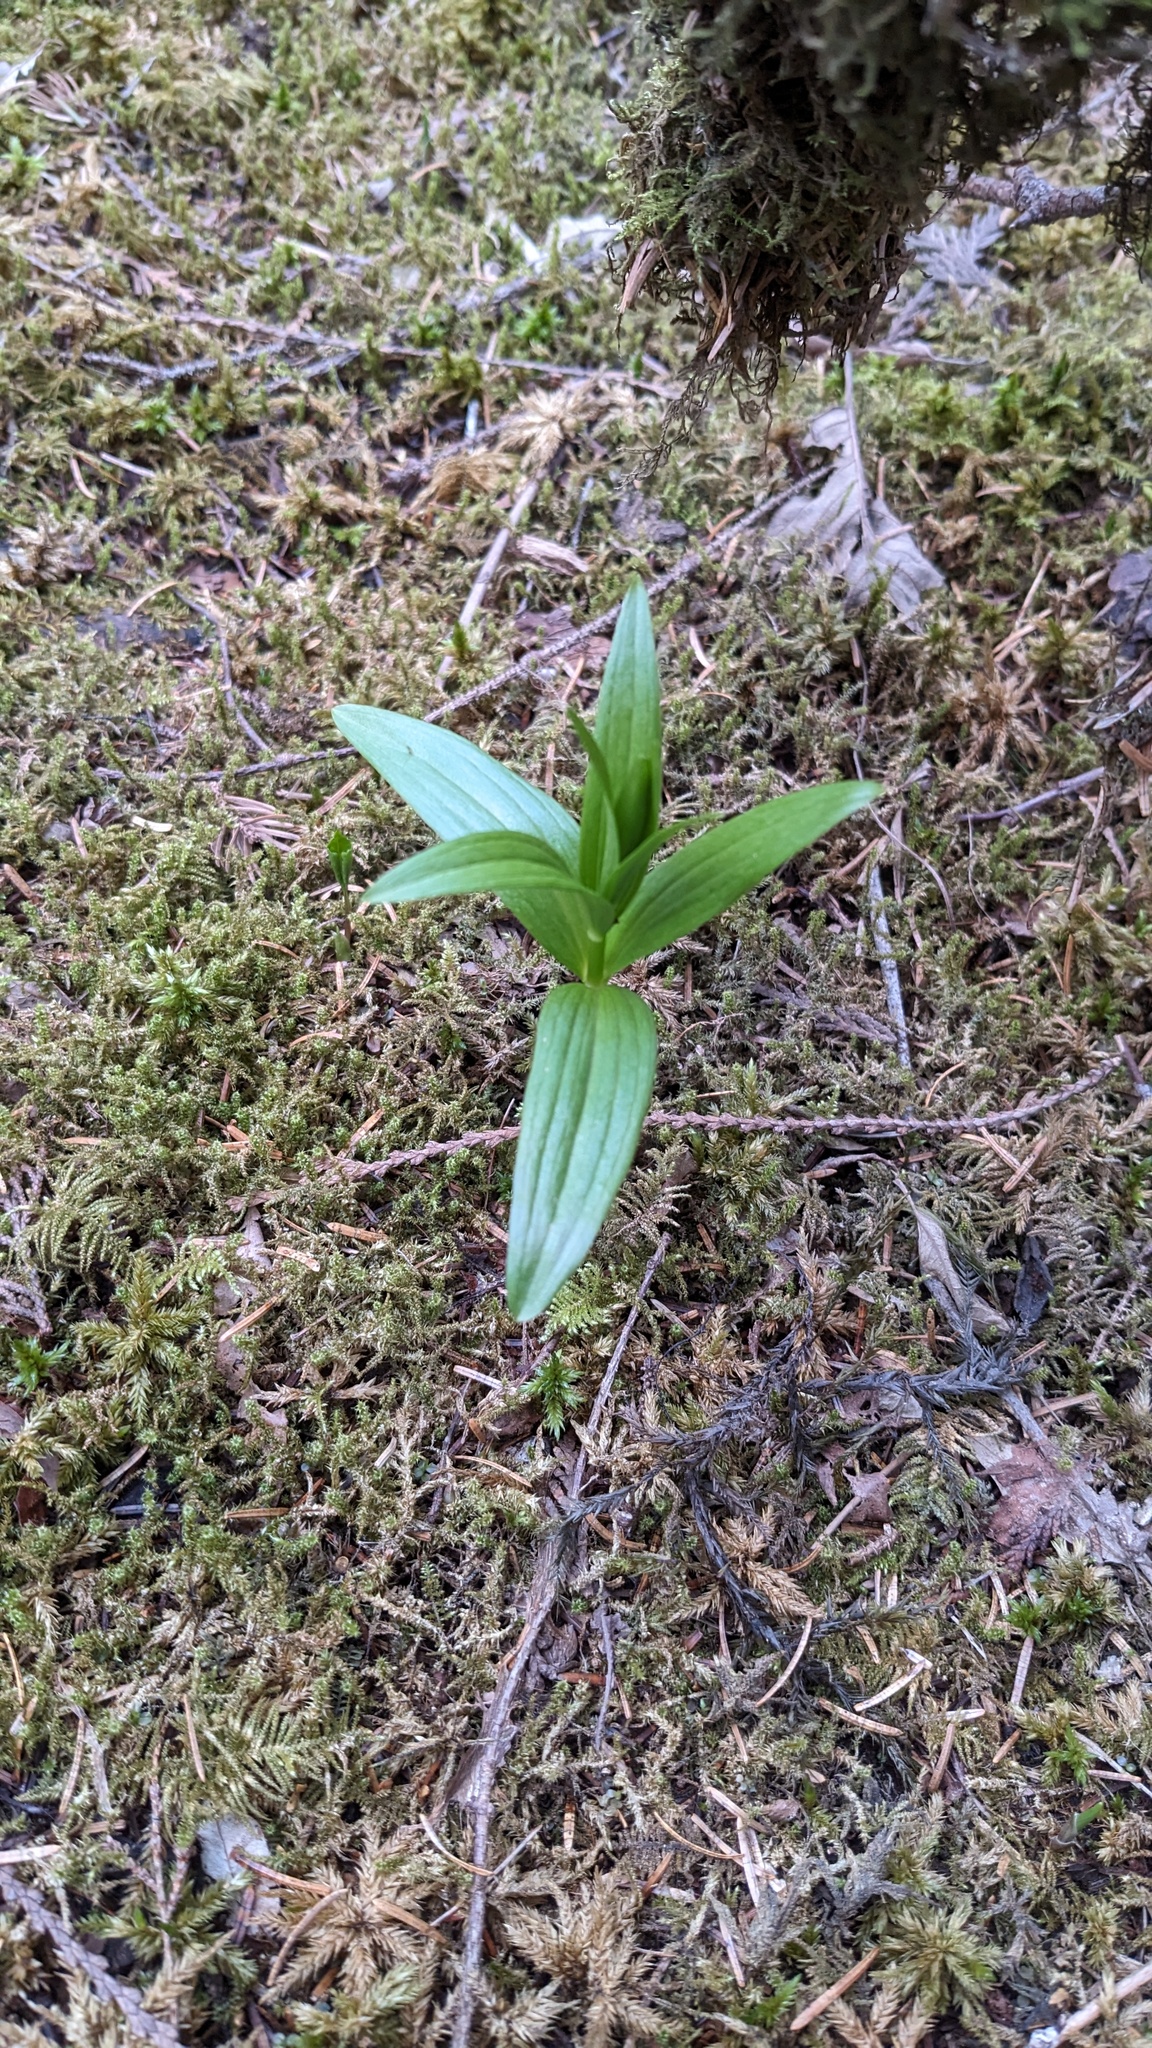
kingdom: Plantae
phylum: Tracheophyta
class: Liliopsida
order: Liliales
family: Liliaceae
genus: Lilium
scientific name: Lilium columbianum
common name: Columbia lily
